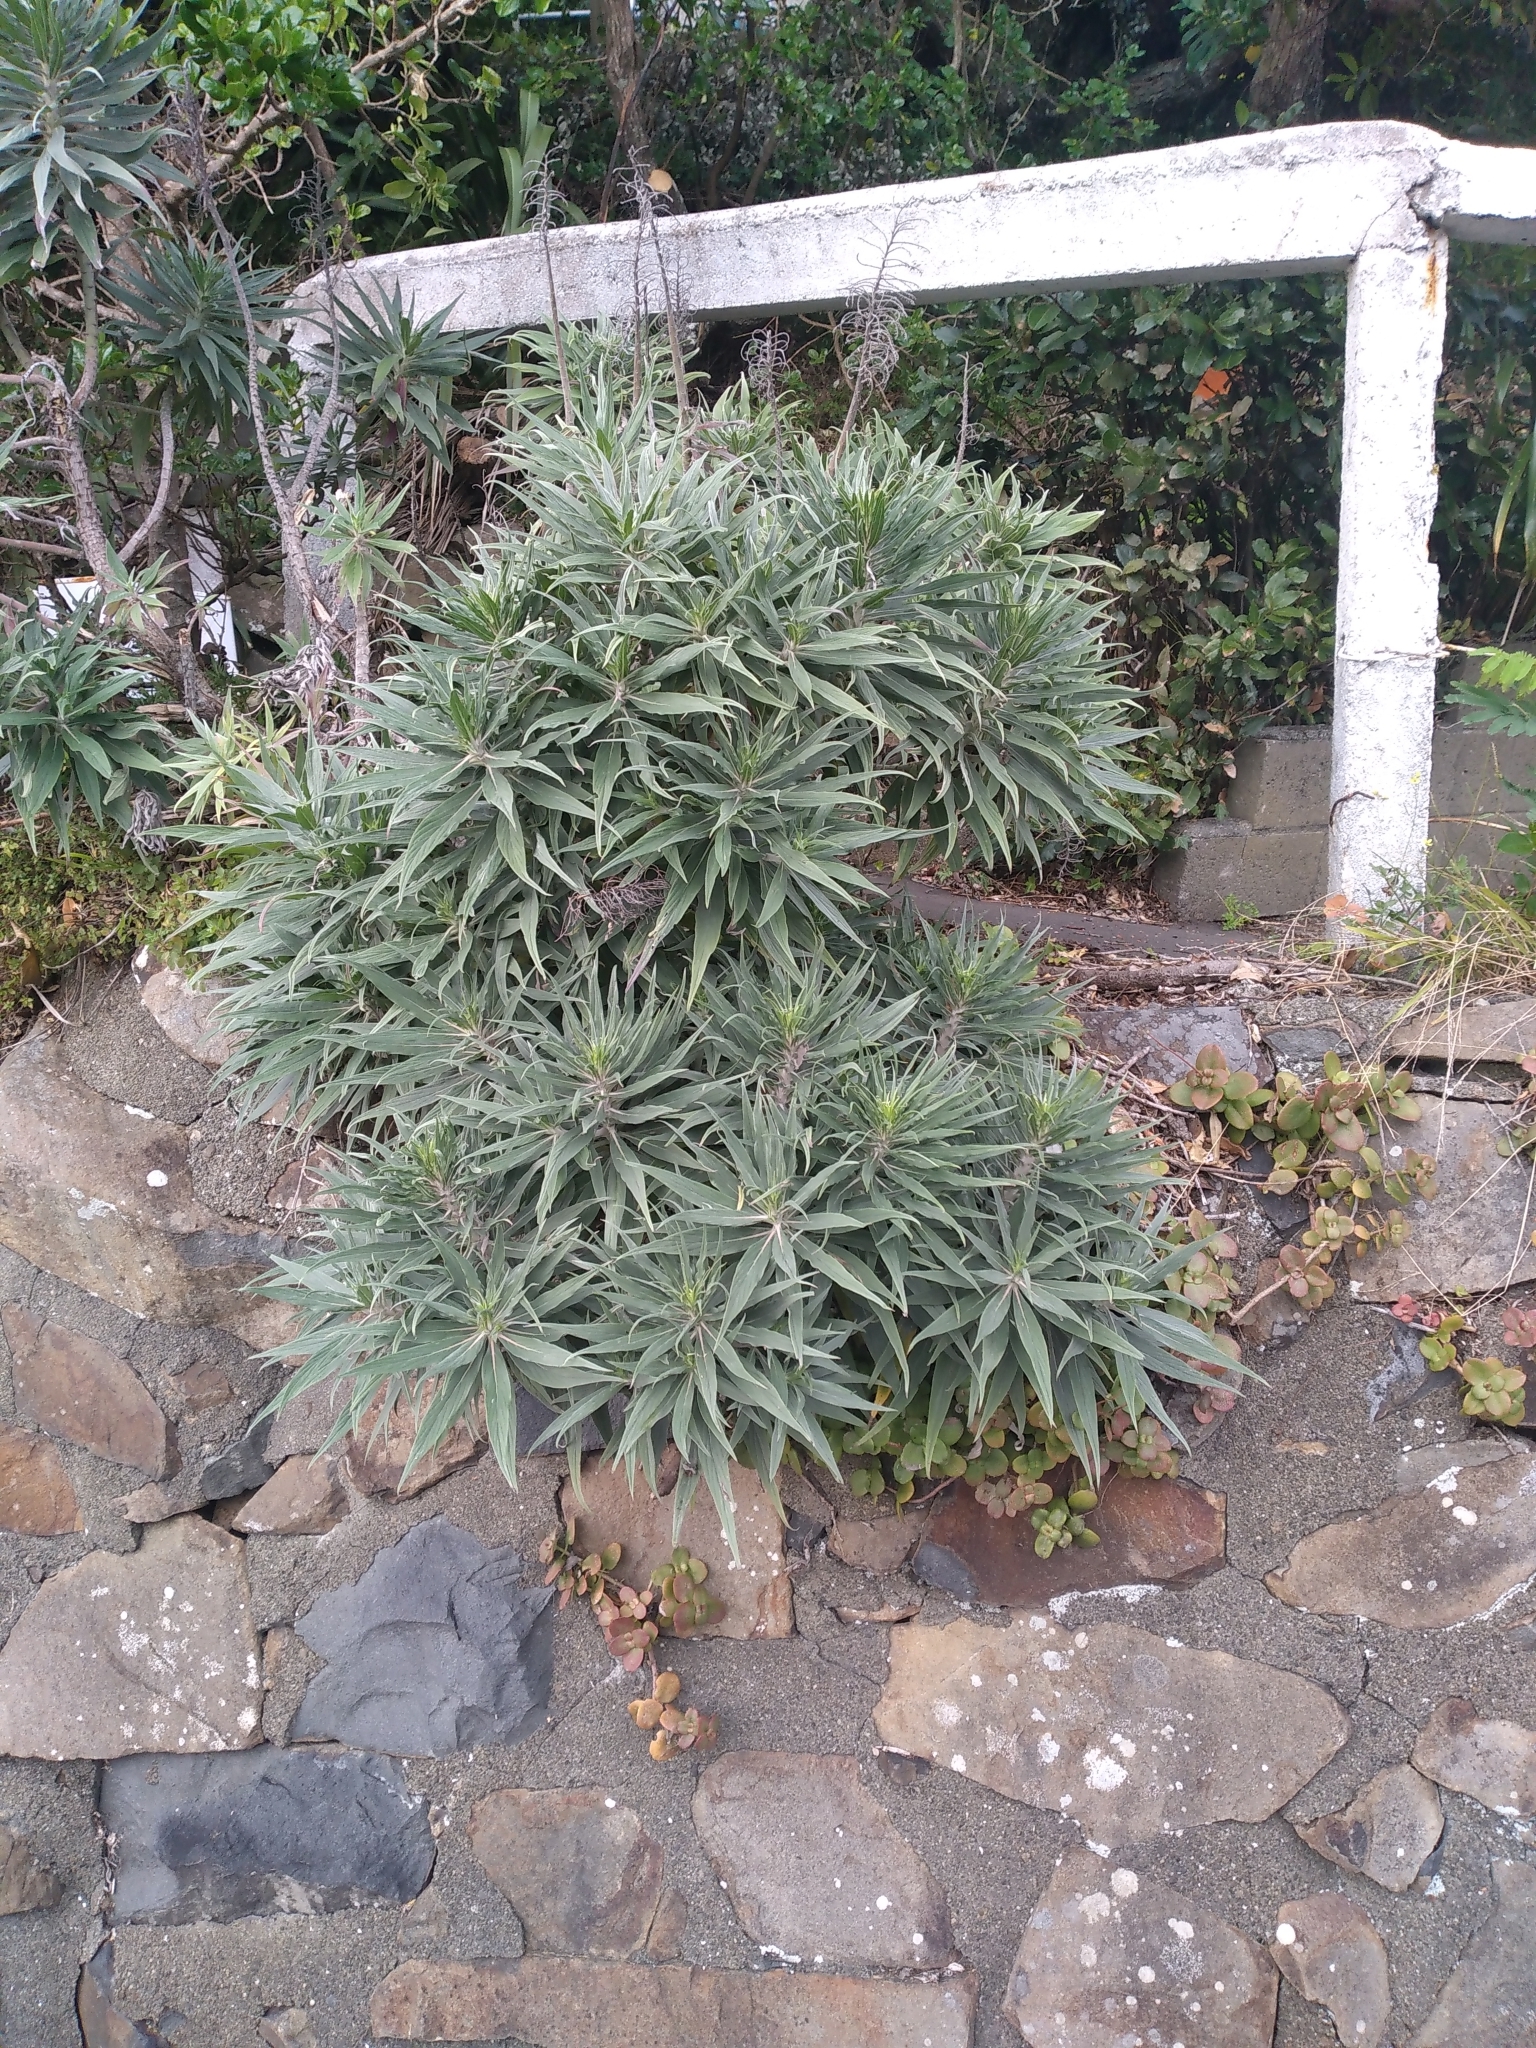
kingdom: Plantae
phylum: Tracheophyta
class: Magnoliopsida
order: Boraginales
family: Boraginaceae
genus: Echium
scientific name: Echium candicans
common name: Pride of madeira
